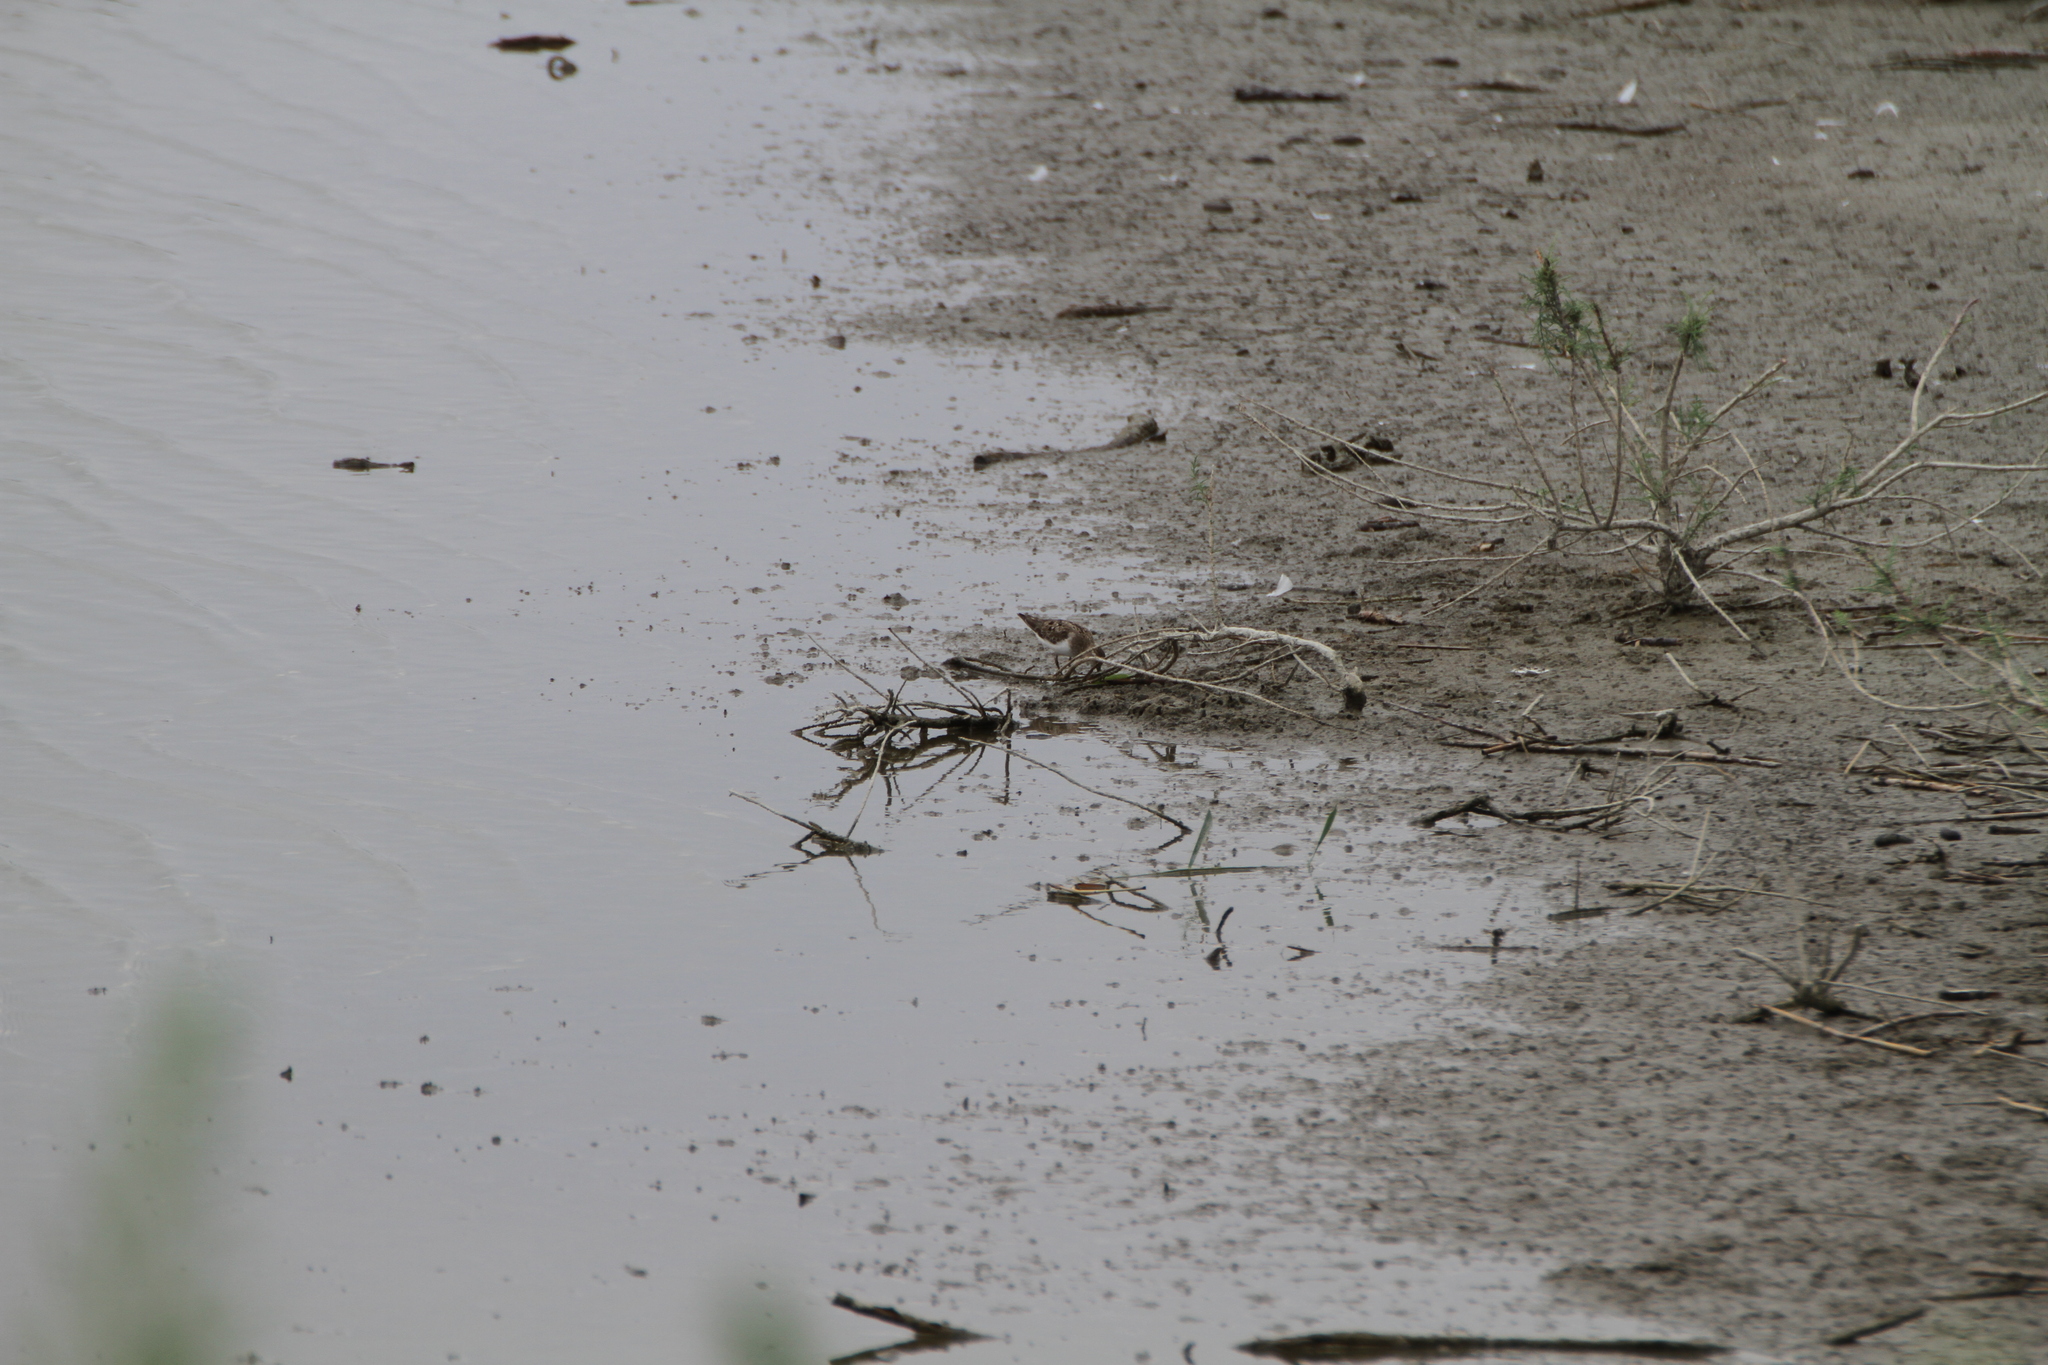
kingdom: Animalia
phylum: Chordata
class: Aves
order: Charadriiformes
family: Scolopacidae
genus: Calidris
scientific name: Calidris temminckii
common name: Temminck's stint
